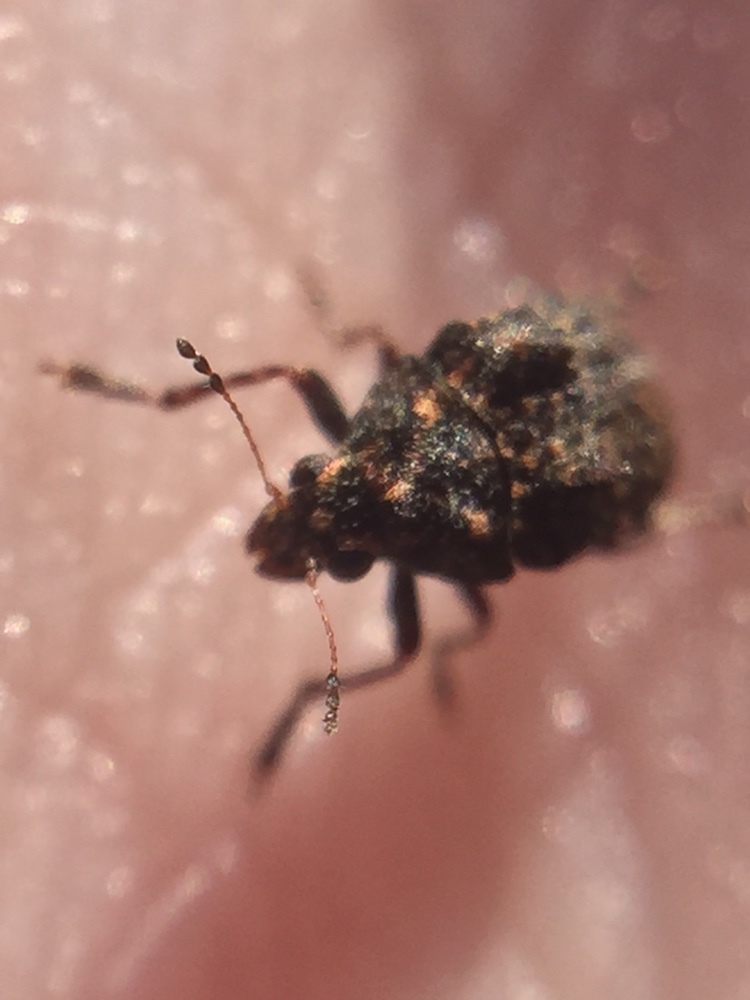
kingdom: Animalia
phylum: Arthropoda
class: Insecta
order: Coleoptera
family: Anthribidae
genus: Araecerus
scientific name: Araecerus
